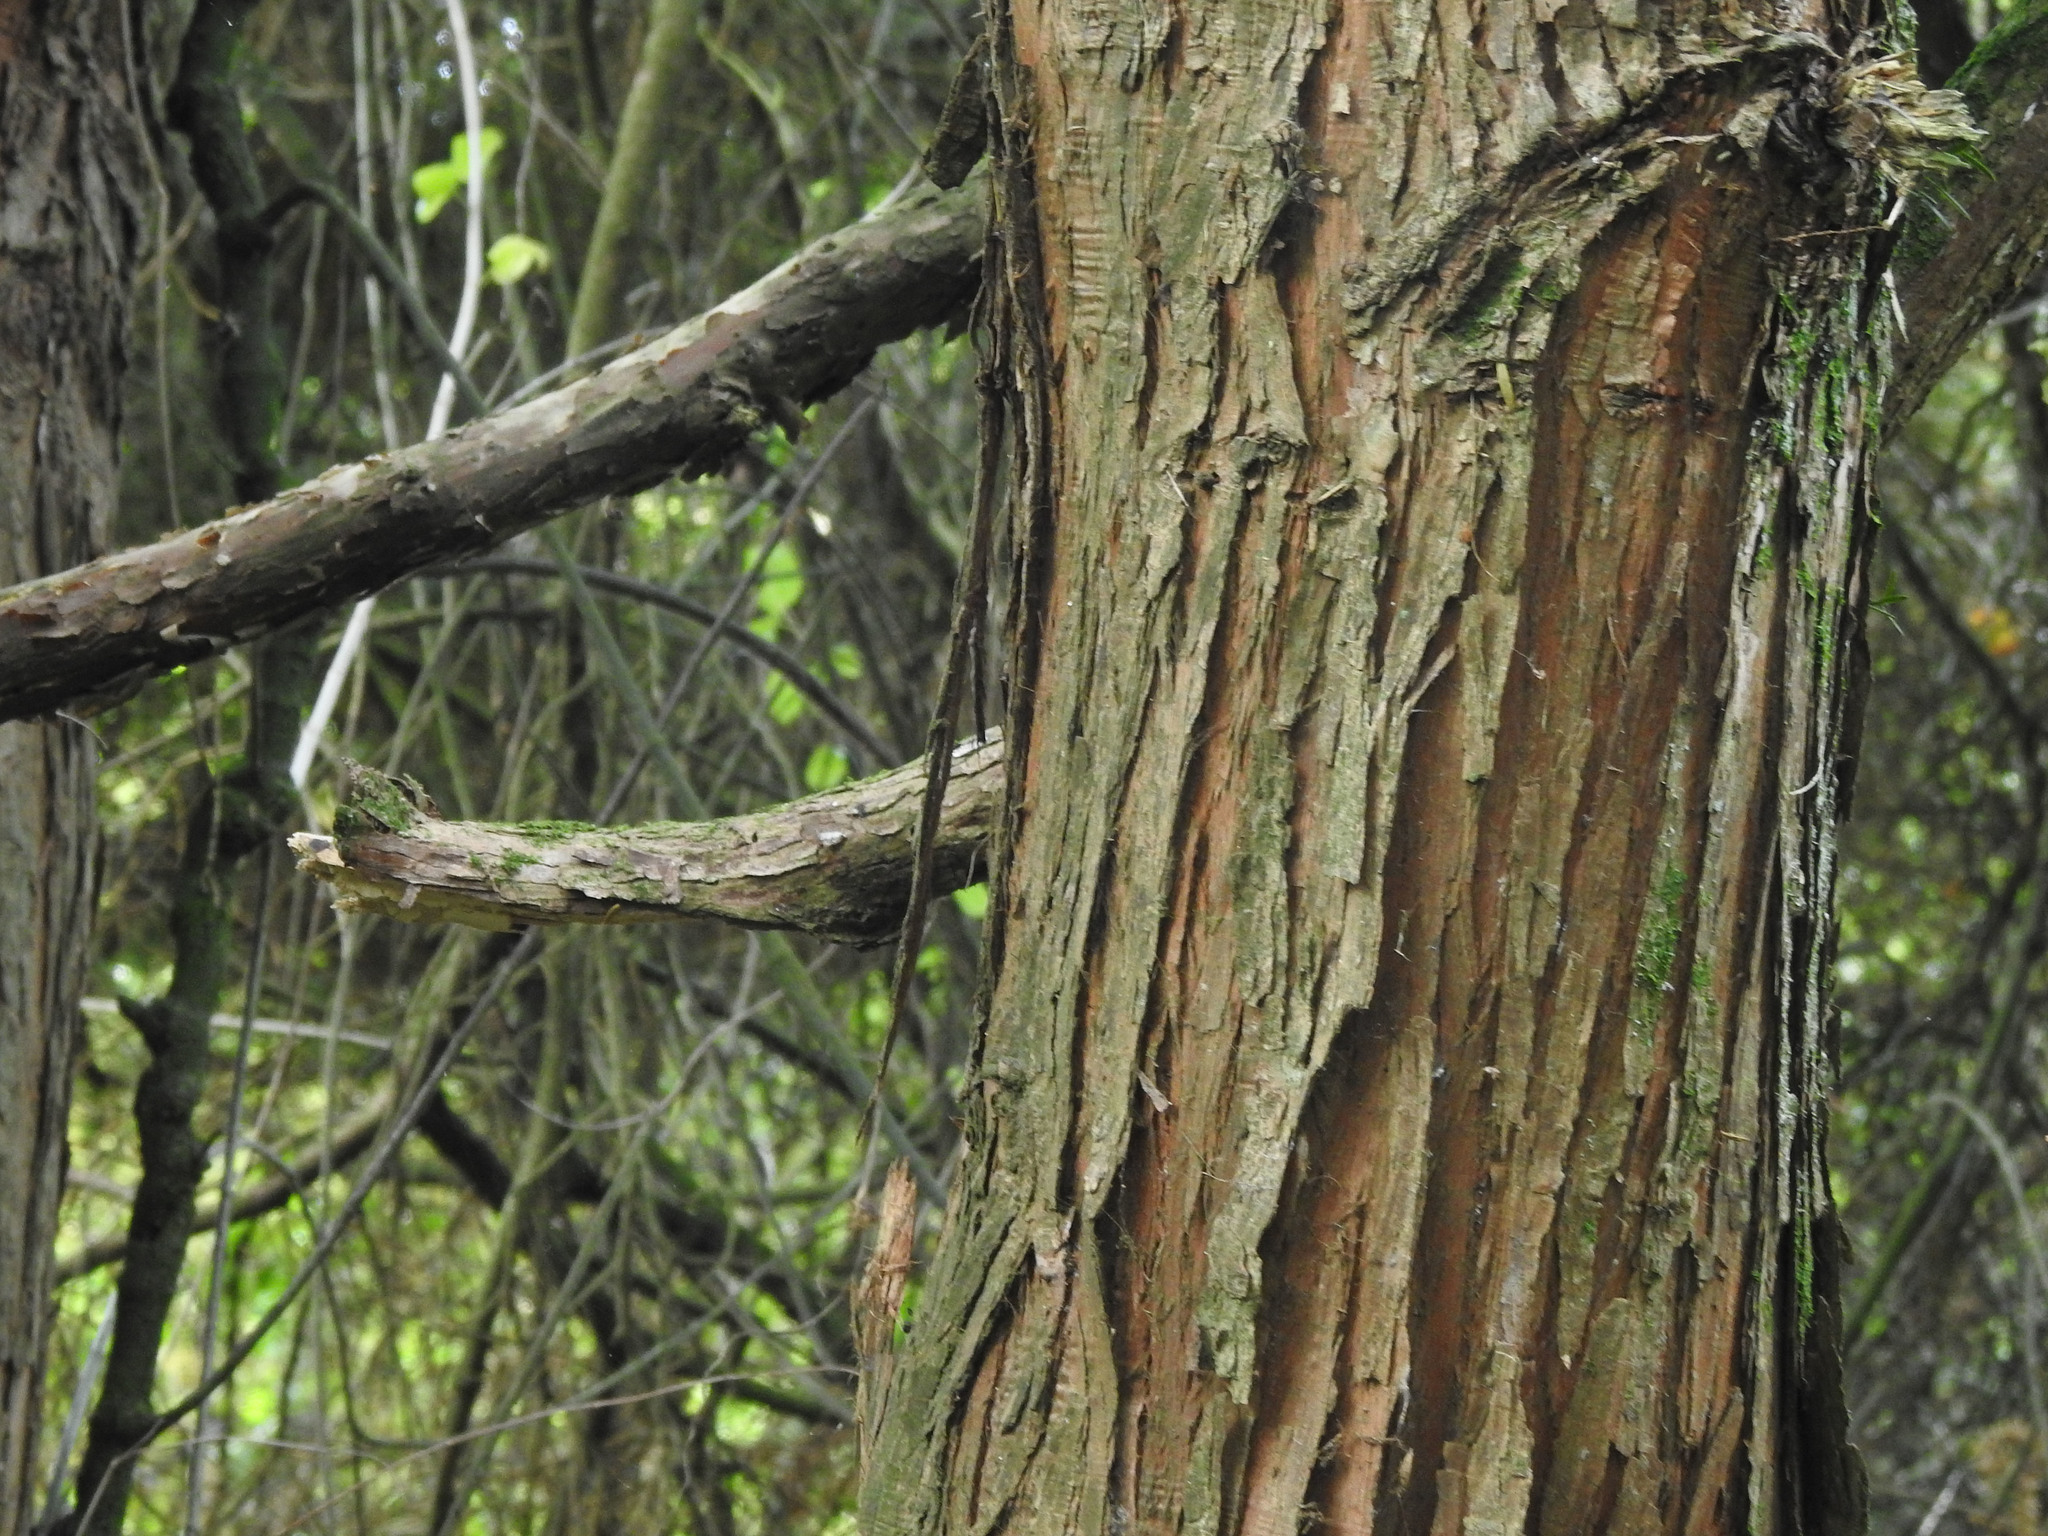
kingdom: Plantae
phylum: Tracheophyta
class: Pinopsida
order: Pinales
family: Podocarpaceae
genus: Podocarpus
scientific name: Podocarpus totara
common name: Totara
